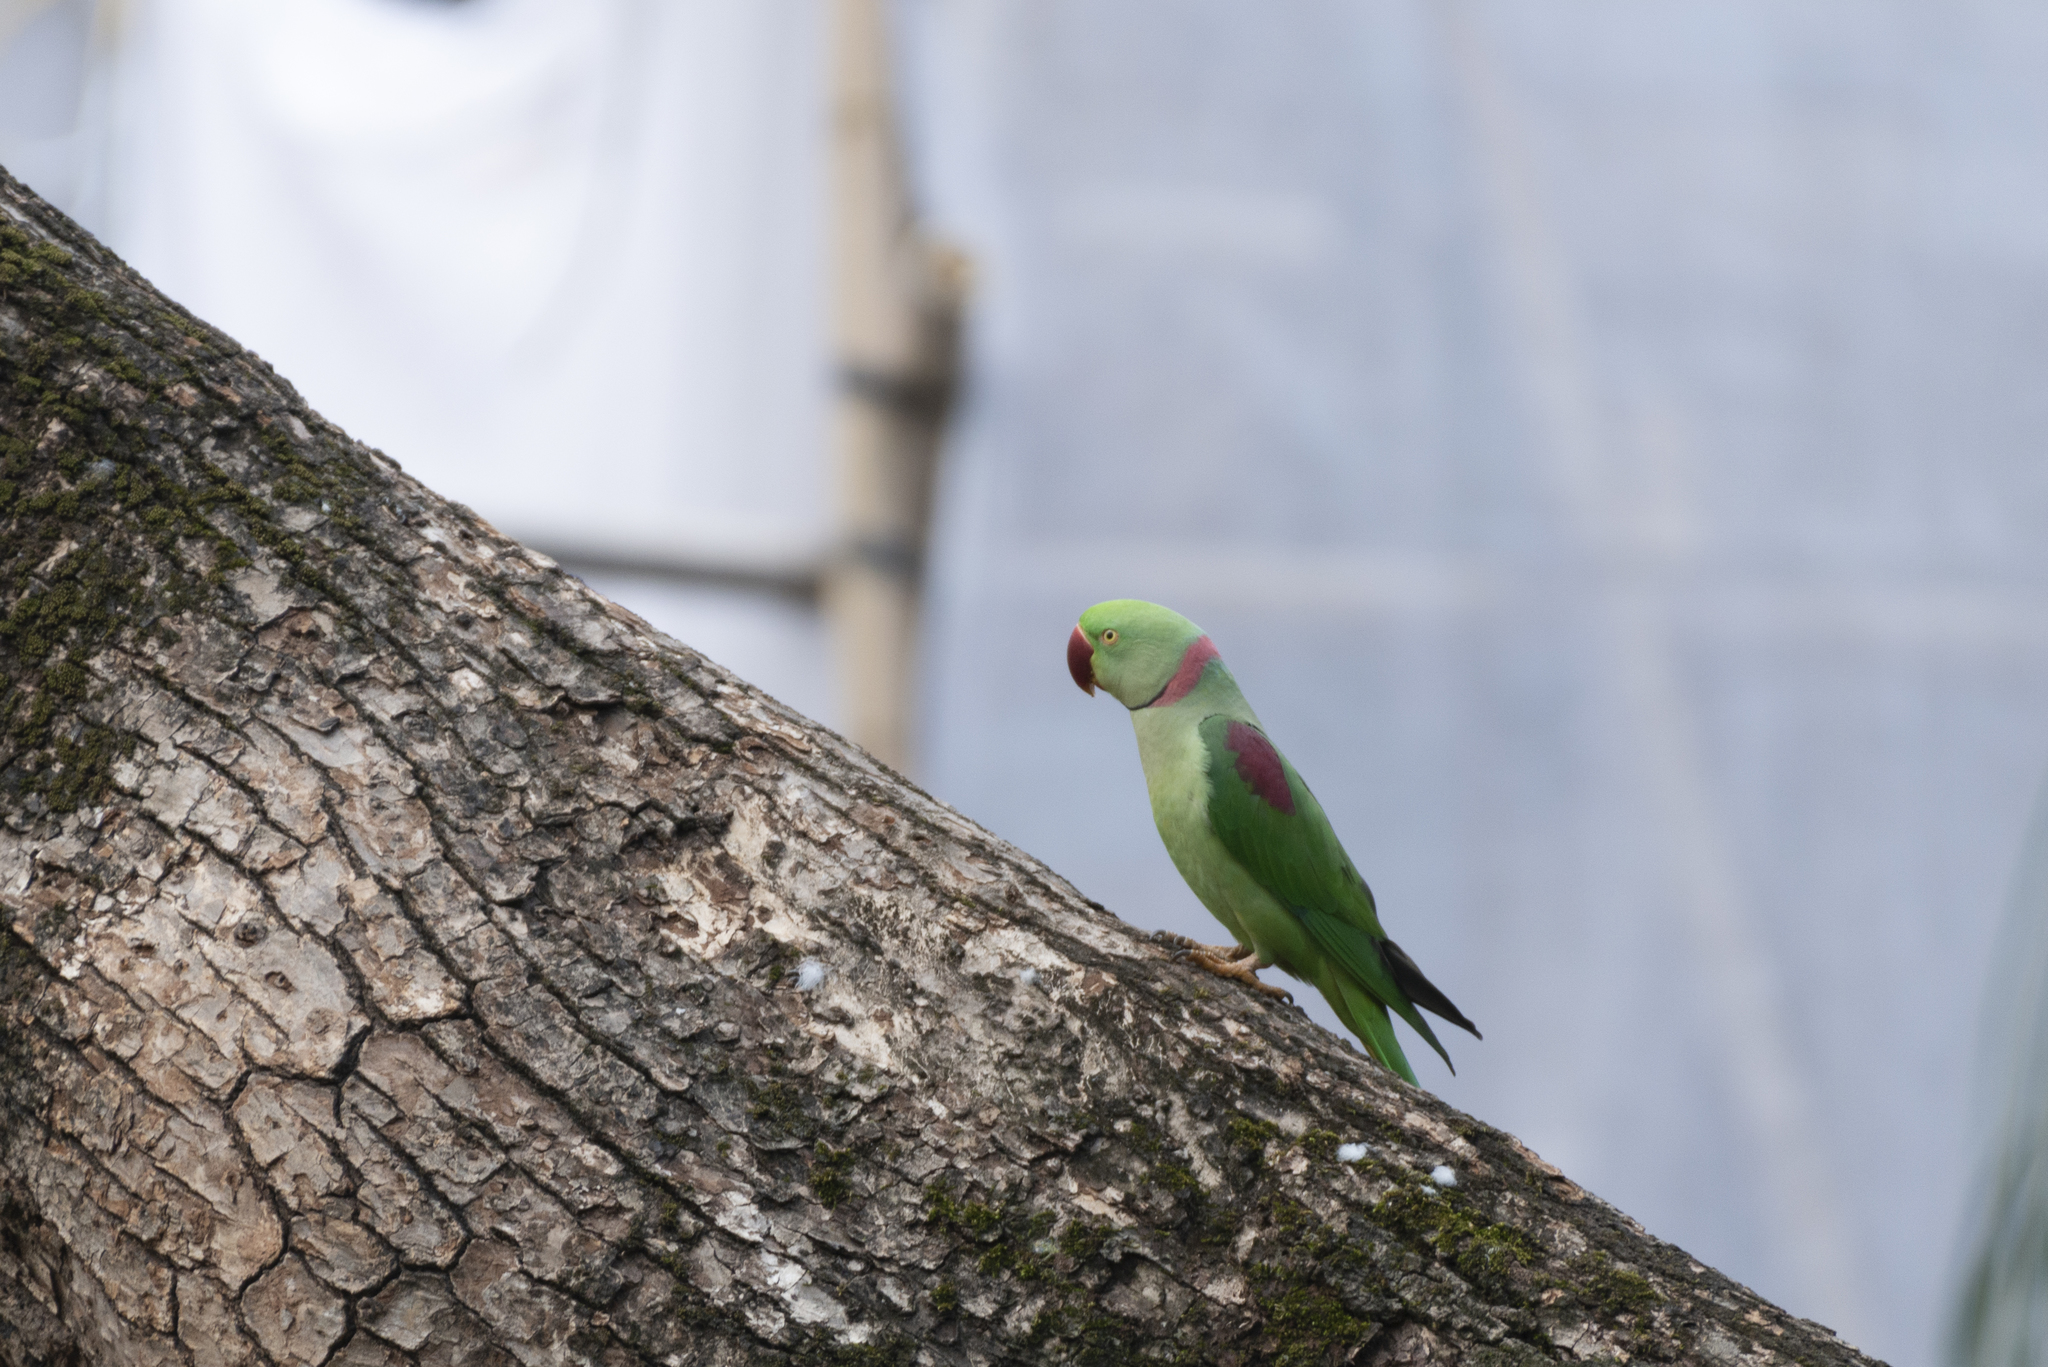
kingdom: Animalia
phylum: Chordata
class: Aves
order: Psittaciformes
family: Psittacidae
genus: Psittacula
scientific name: Psittacula eupatria
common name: Alexandrine parakeet
